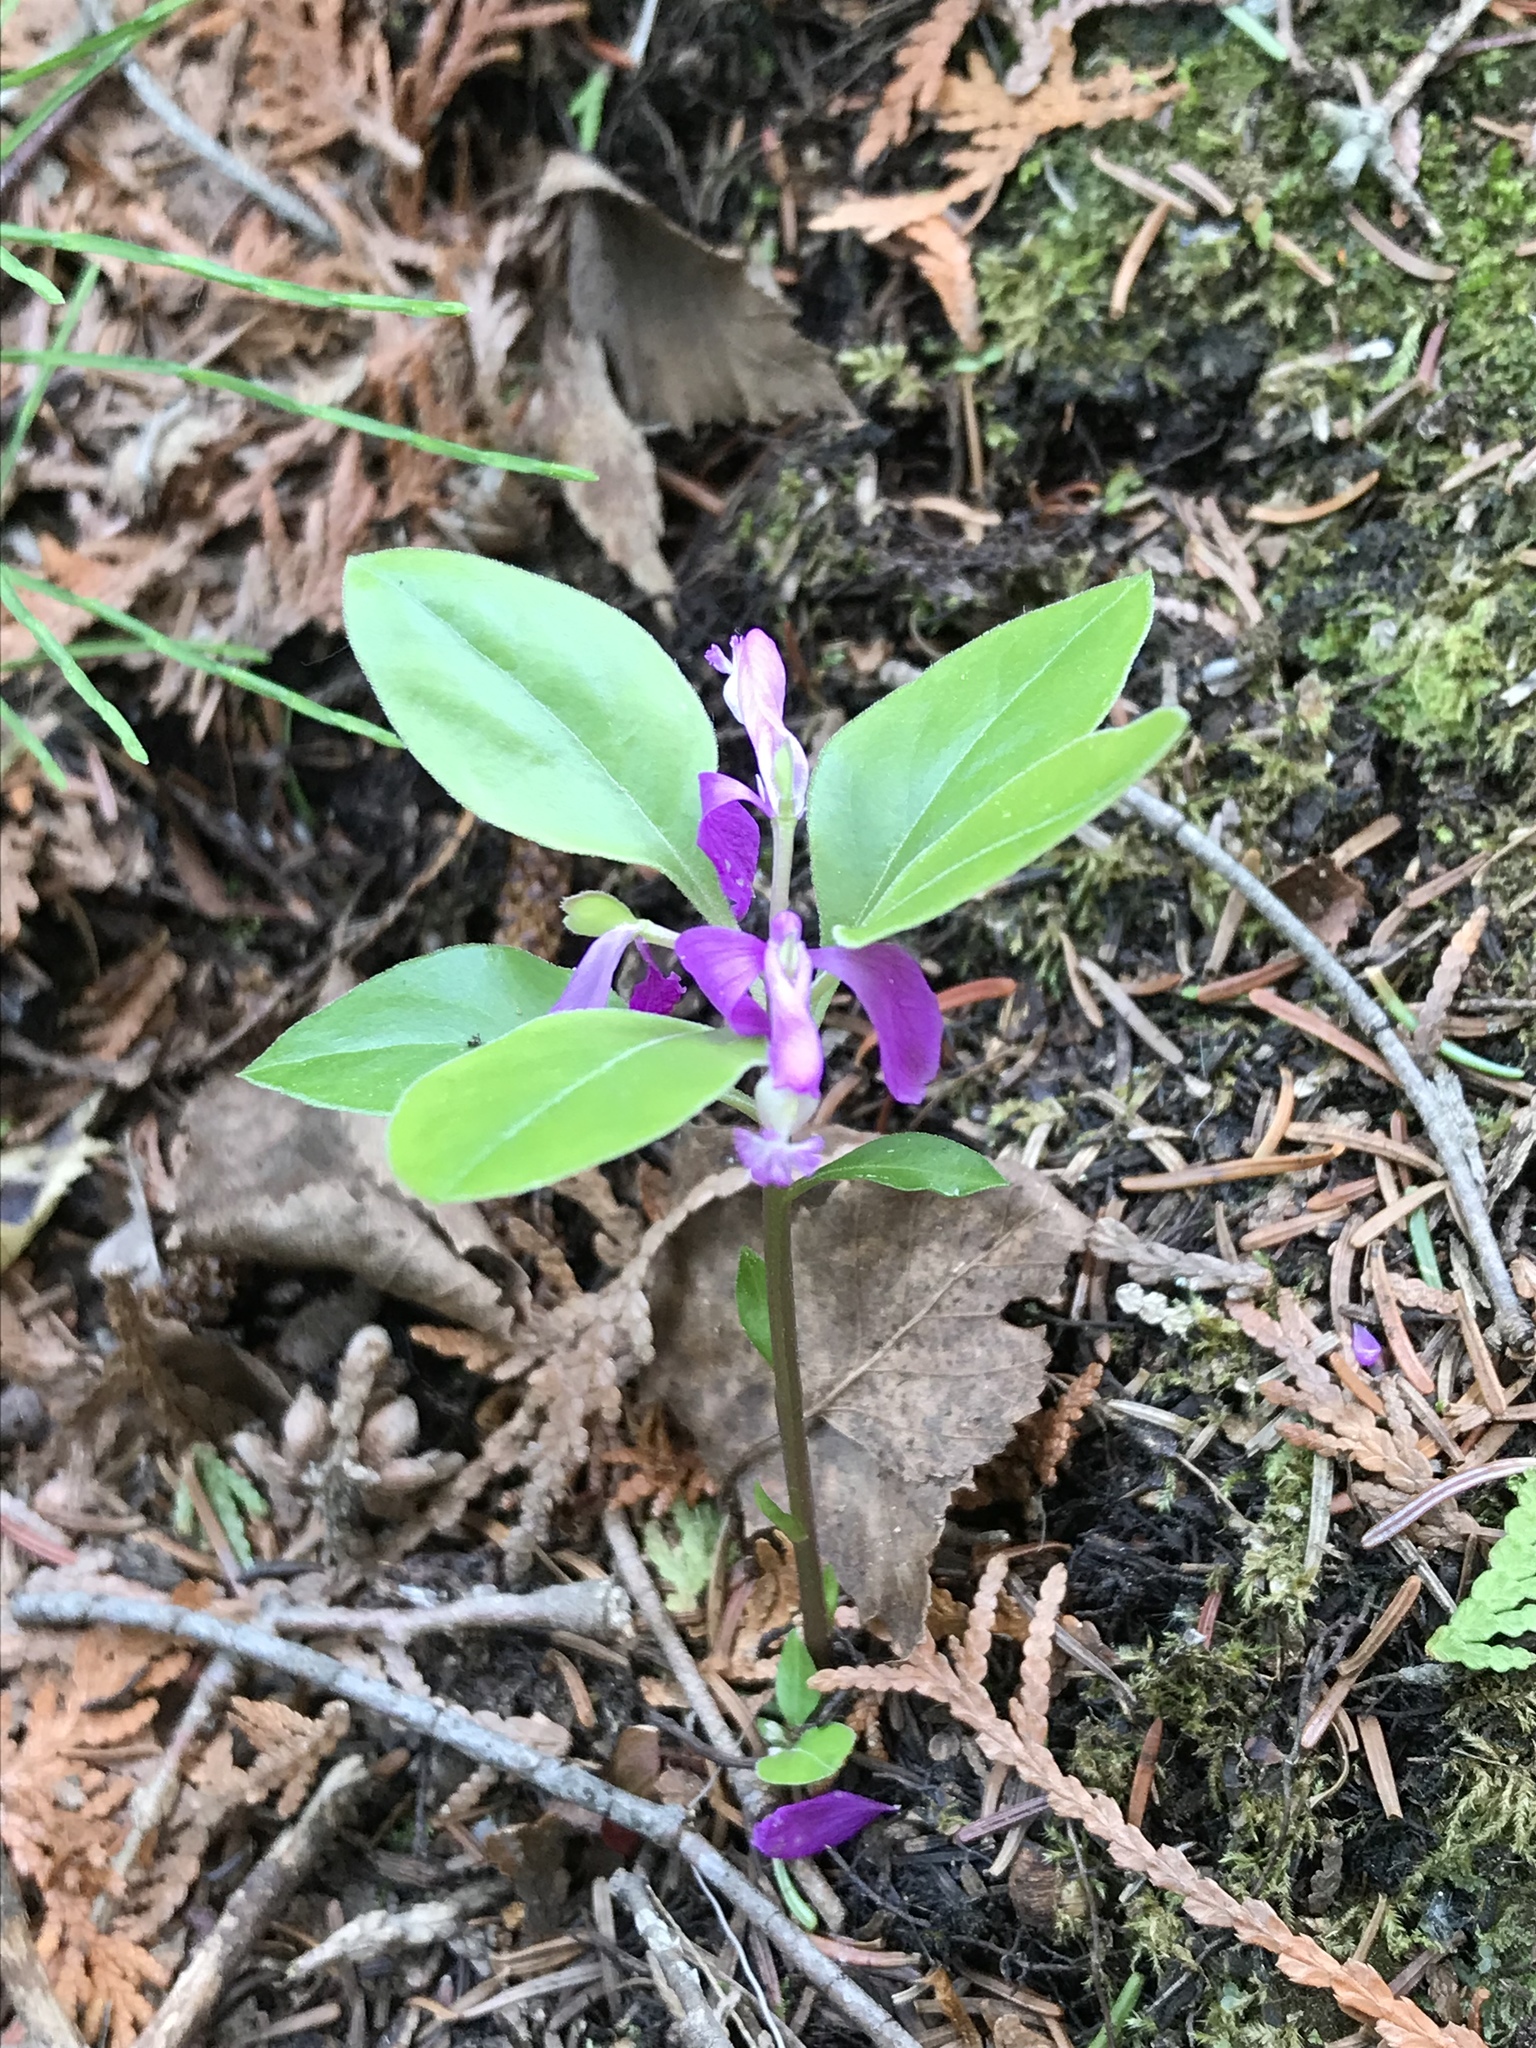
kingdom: Plantae
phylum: Tracheophyta
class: Magnoliopsida
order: Fabales
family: Polygalaceae
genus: Polygaloides
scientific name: Polygaloides paucifolia
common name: Bird-on-the-wing
